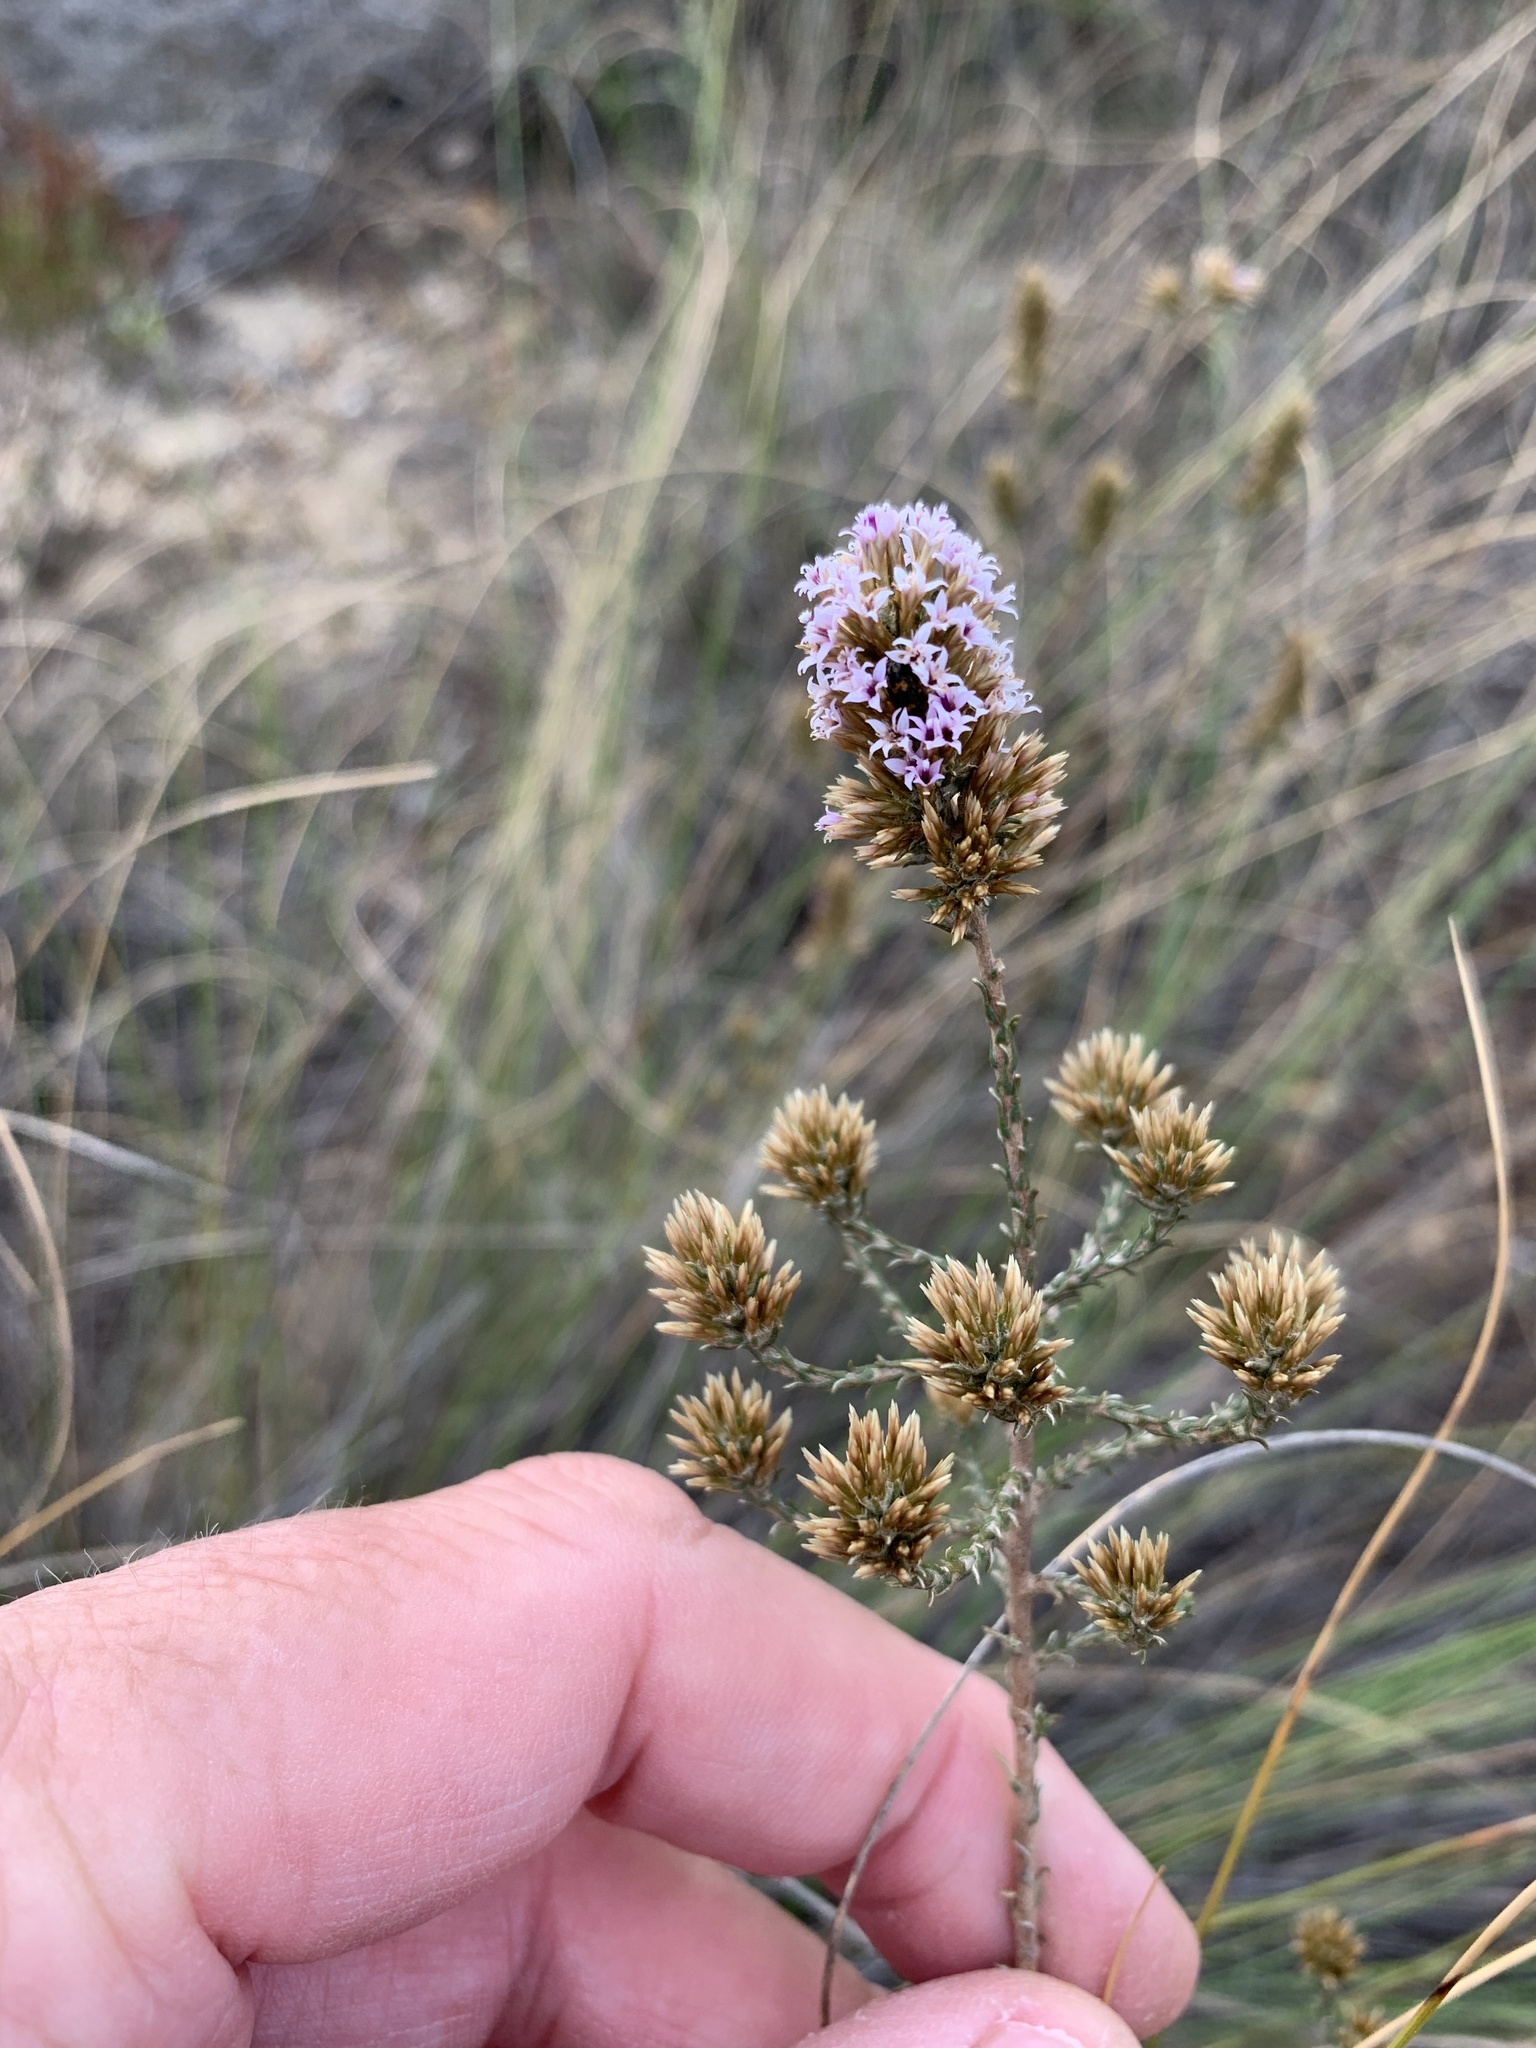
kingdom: Plantae
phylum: Tracheophyta
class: Magnoliopsida
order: Asterales
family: Asteraceae
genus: Stoebe
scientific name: Stoebe capitata
